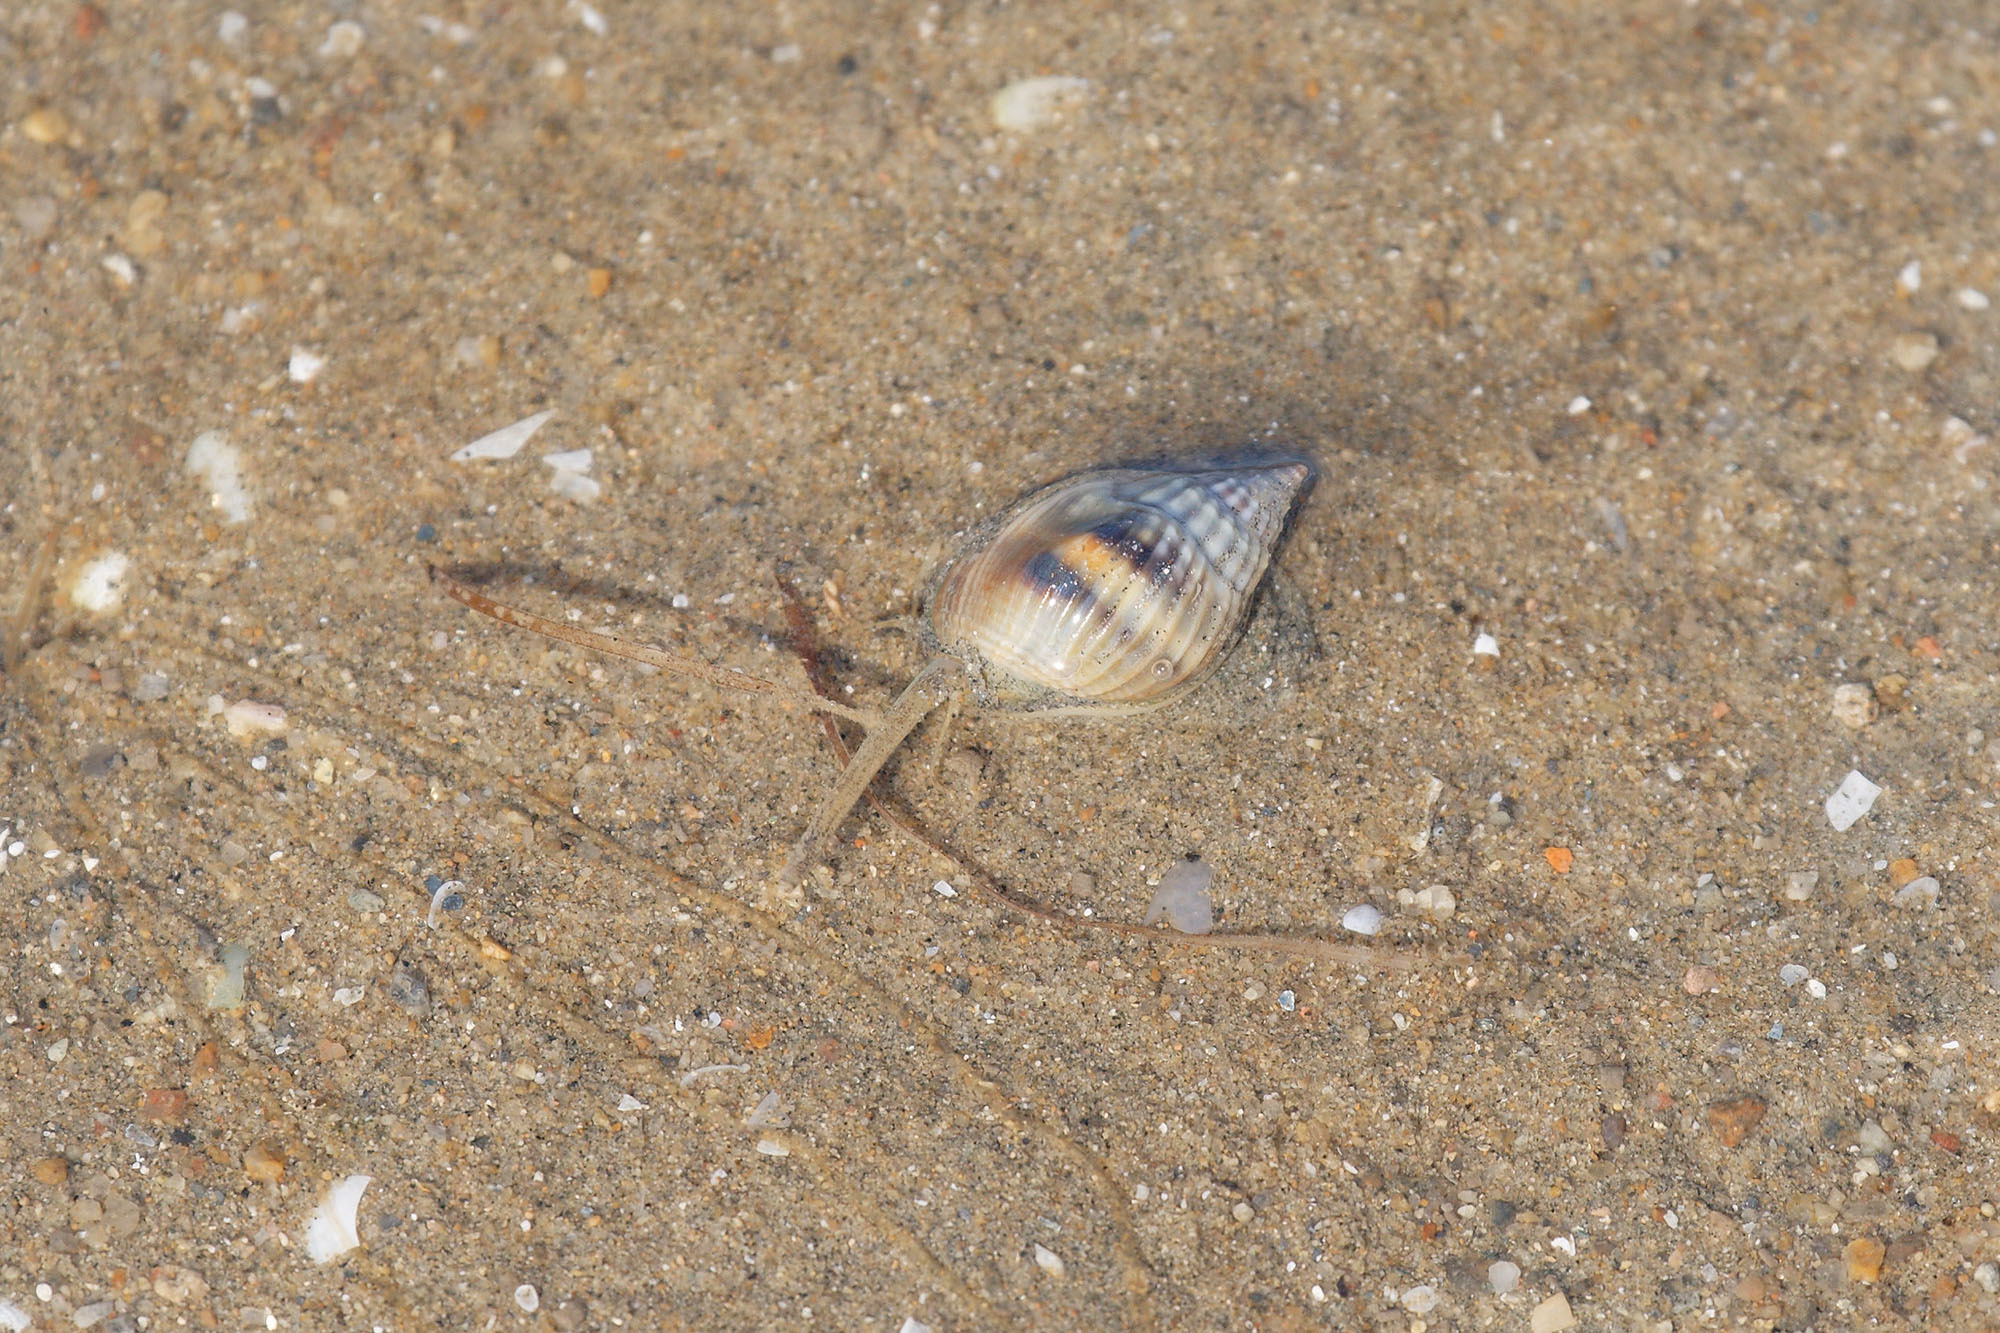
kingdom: Animalia
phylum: Mollusca
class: Gastropoda
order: Neogastropoda
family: Nassariidae
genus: Nassarius
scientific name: Nassarius pullus
